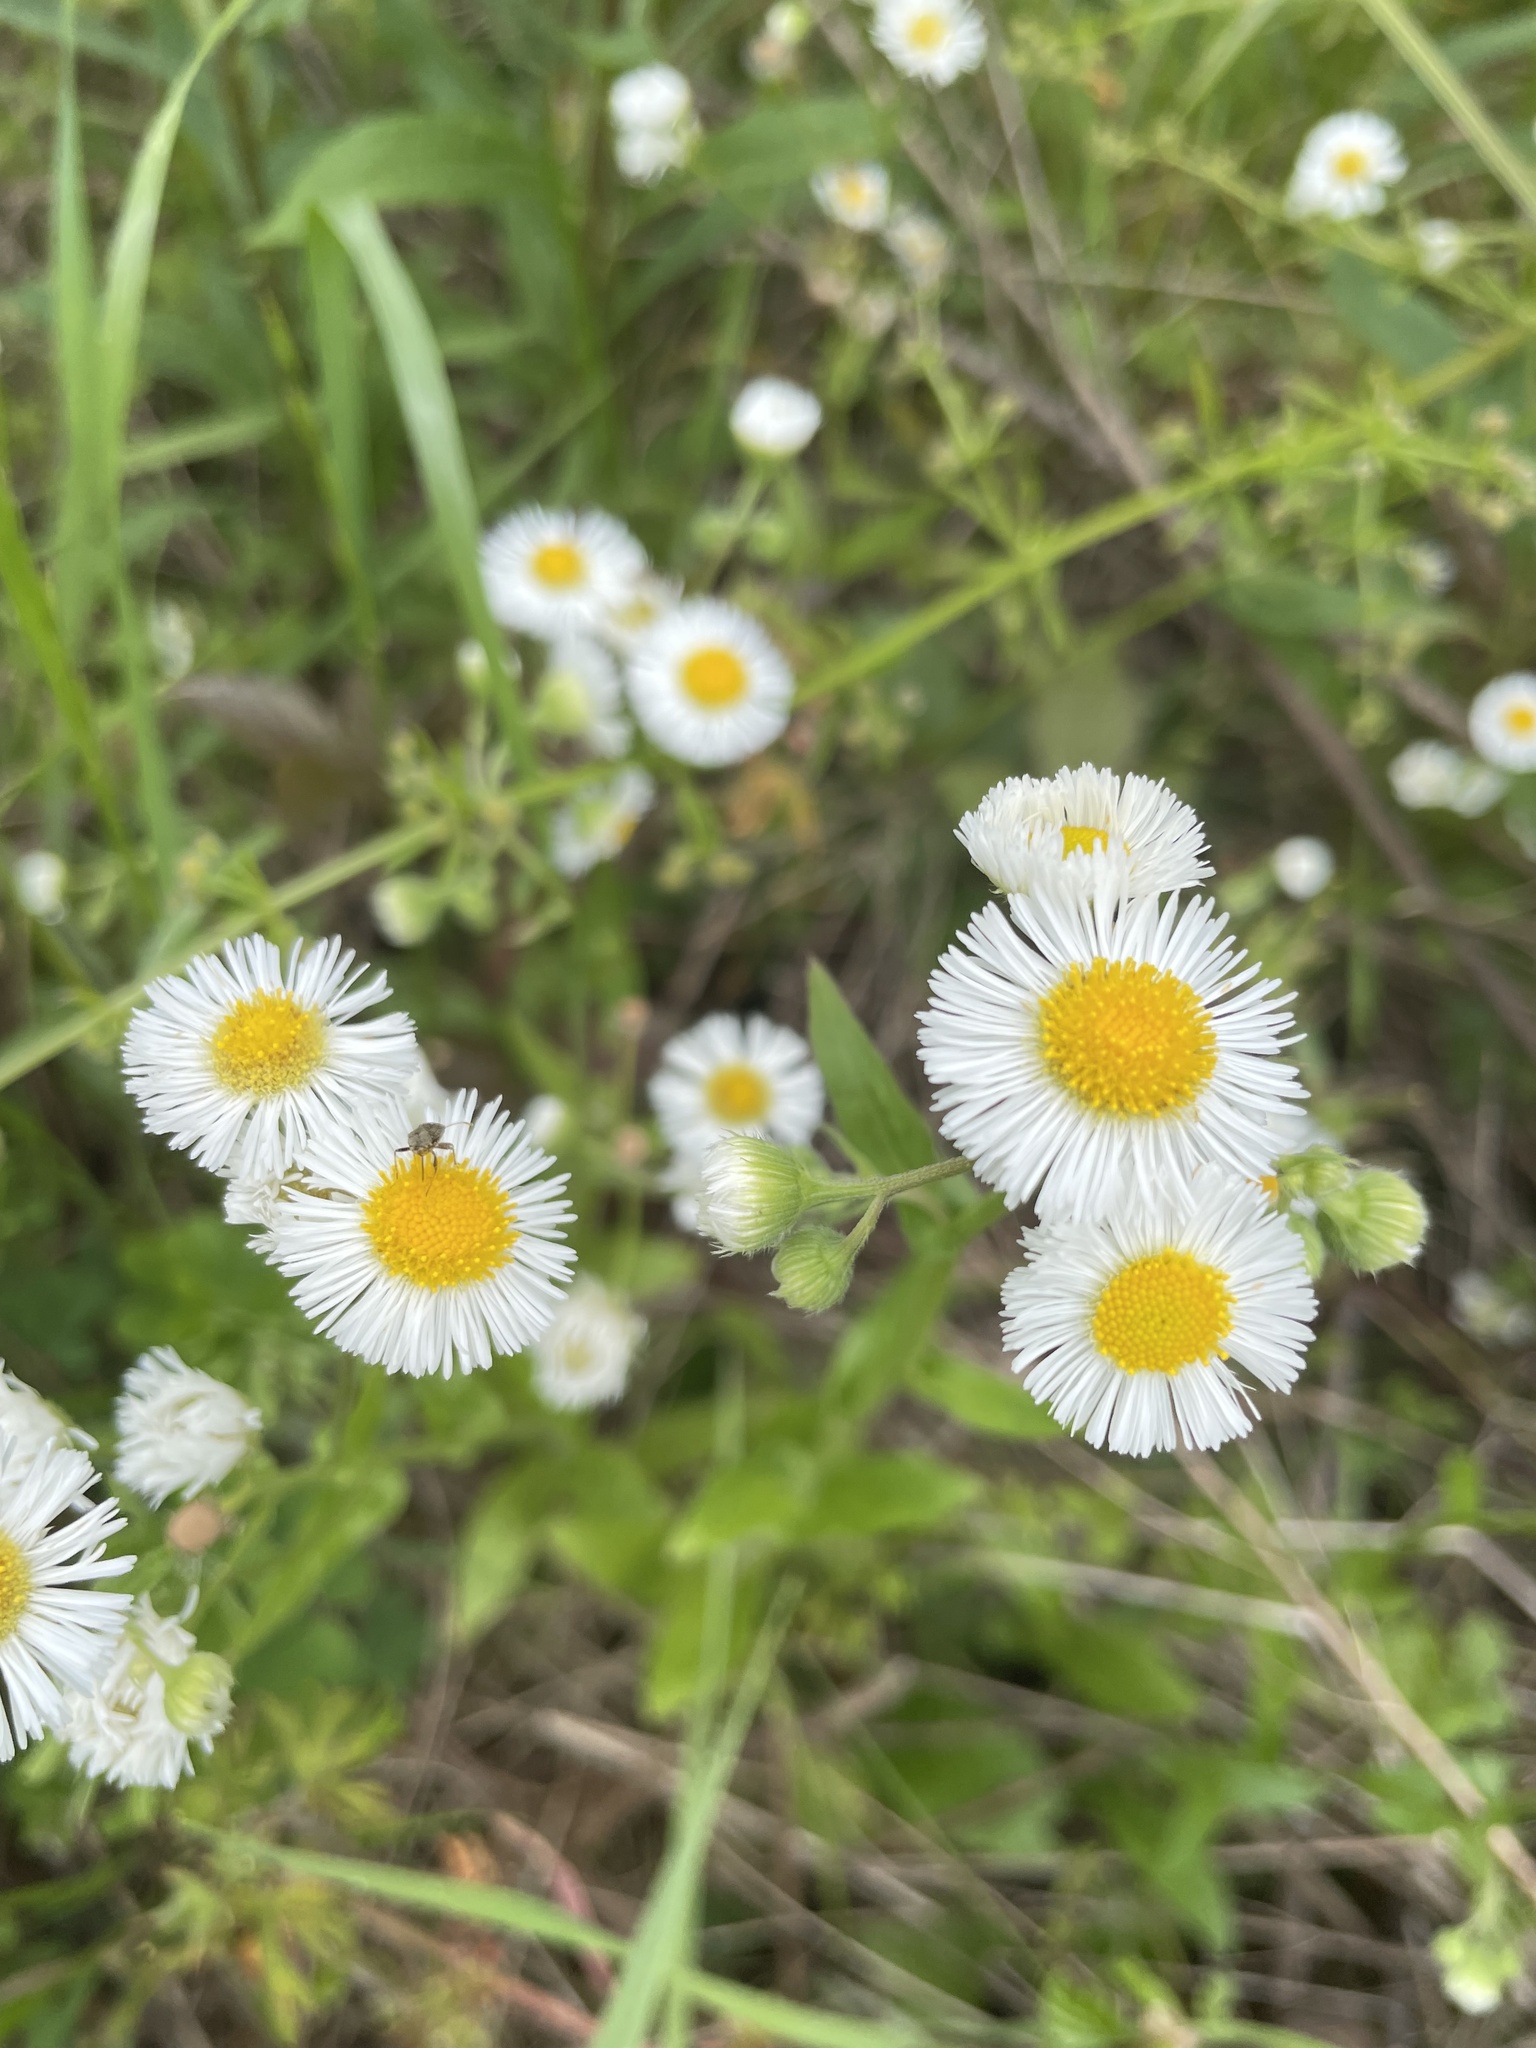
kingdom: Plantae
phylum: Tracheophyta
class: Magnoliopsida
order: Asterales
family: Asteraceae
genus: Erigeron
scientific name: Erigeron philadelphicus
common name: Robin's-plantain
